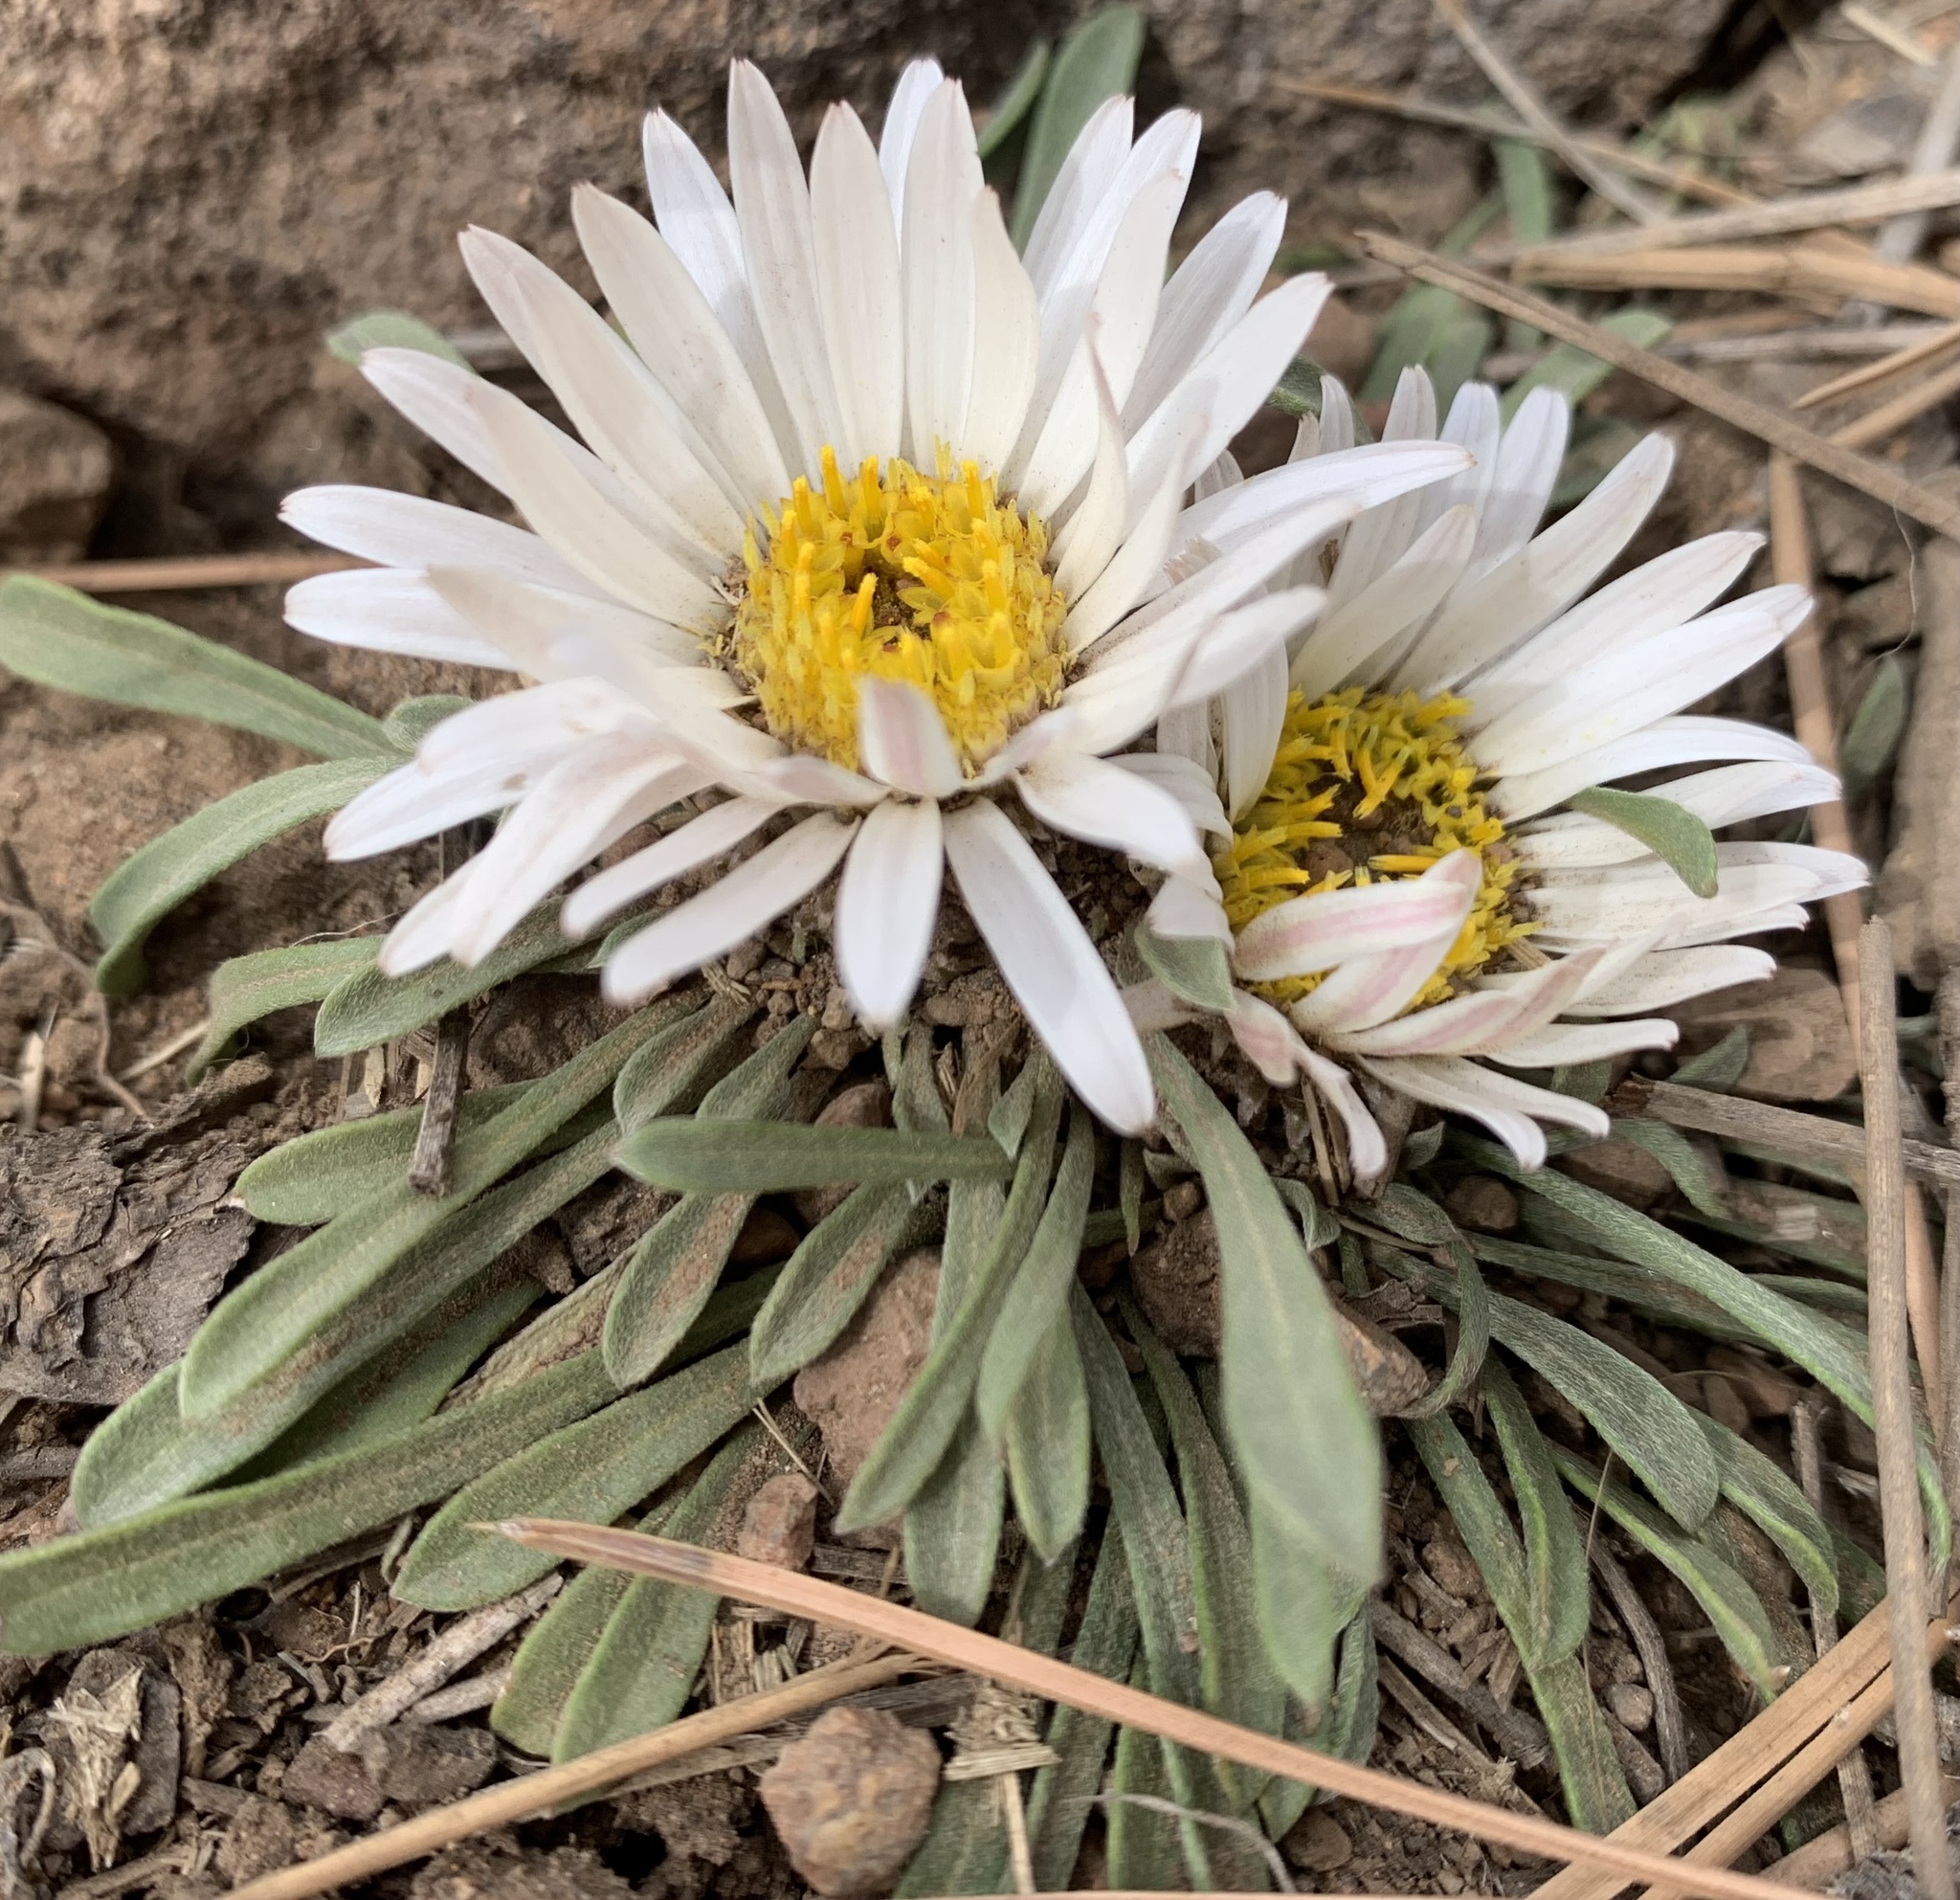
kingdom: Plantae
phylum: Tracheophyta
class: Magnoliopsida
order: Asterales
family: Asteraceae
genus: Townsendia
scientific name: Townsendia exscapa
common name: Dwarf townsendia
